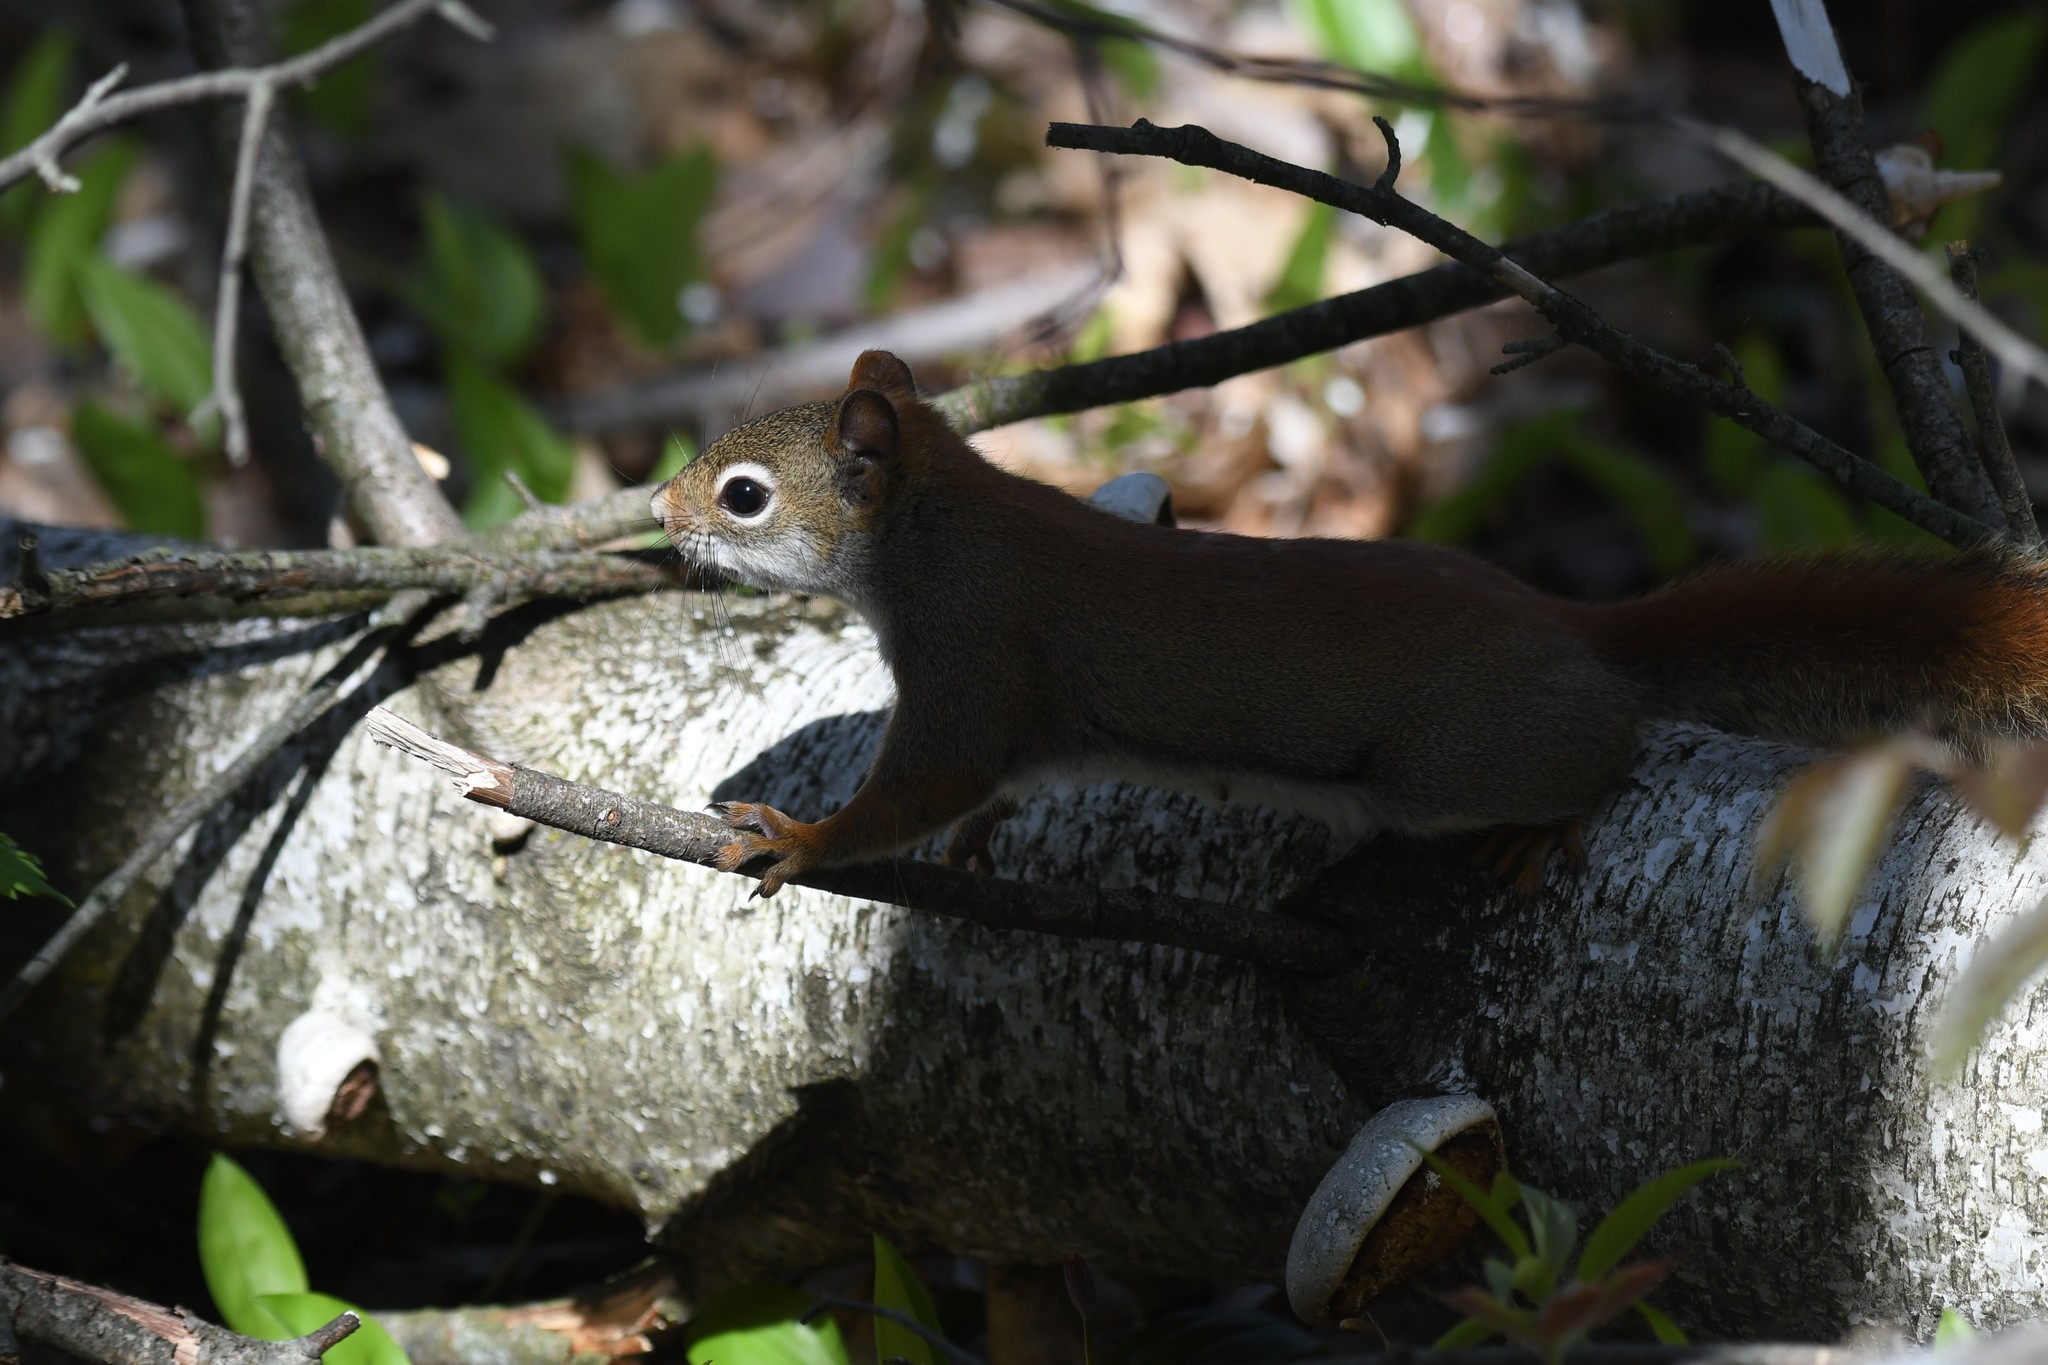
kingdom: Animalia
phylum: Chordata
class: Mammalia
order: Rodentia
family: Sciuridae
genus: Tamiasciurus
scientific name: Tamiasciurus hudsonicus
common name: Red squirrel
